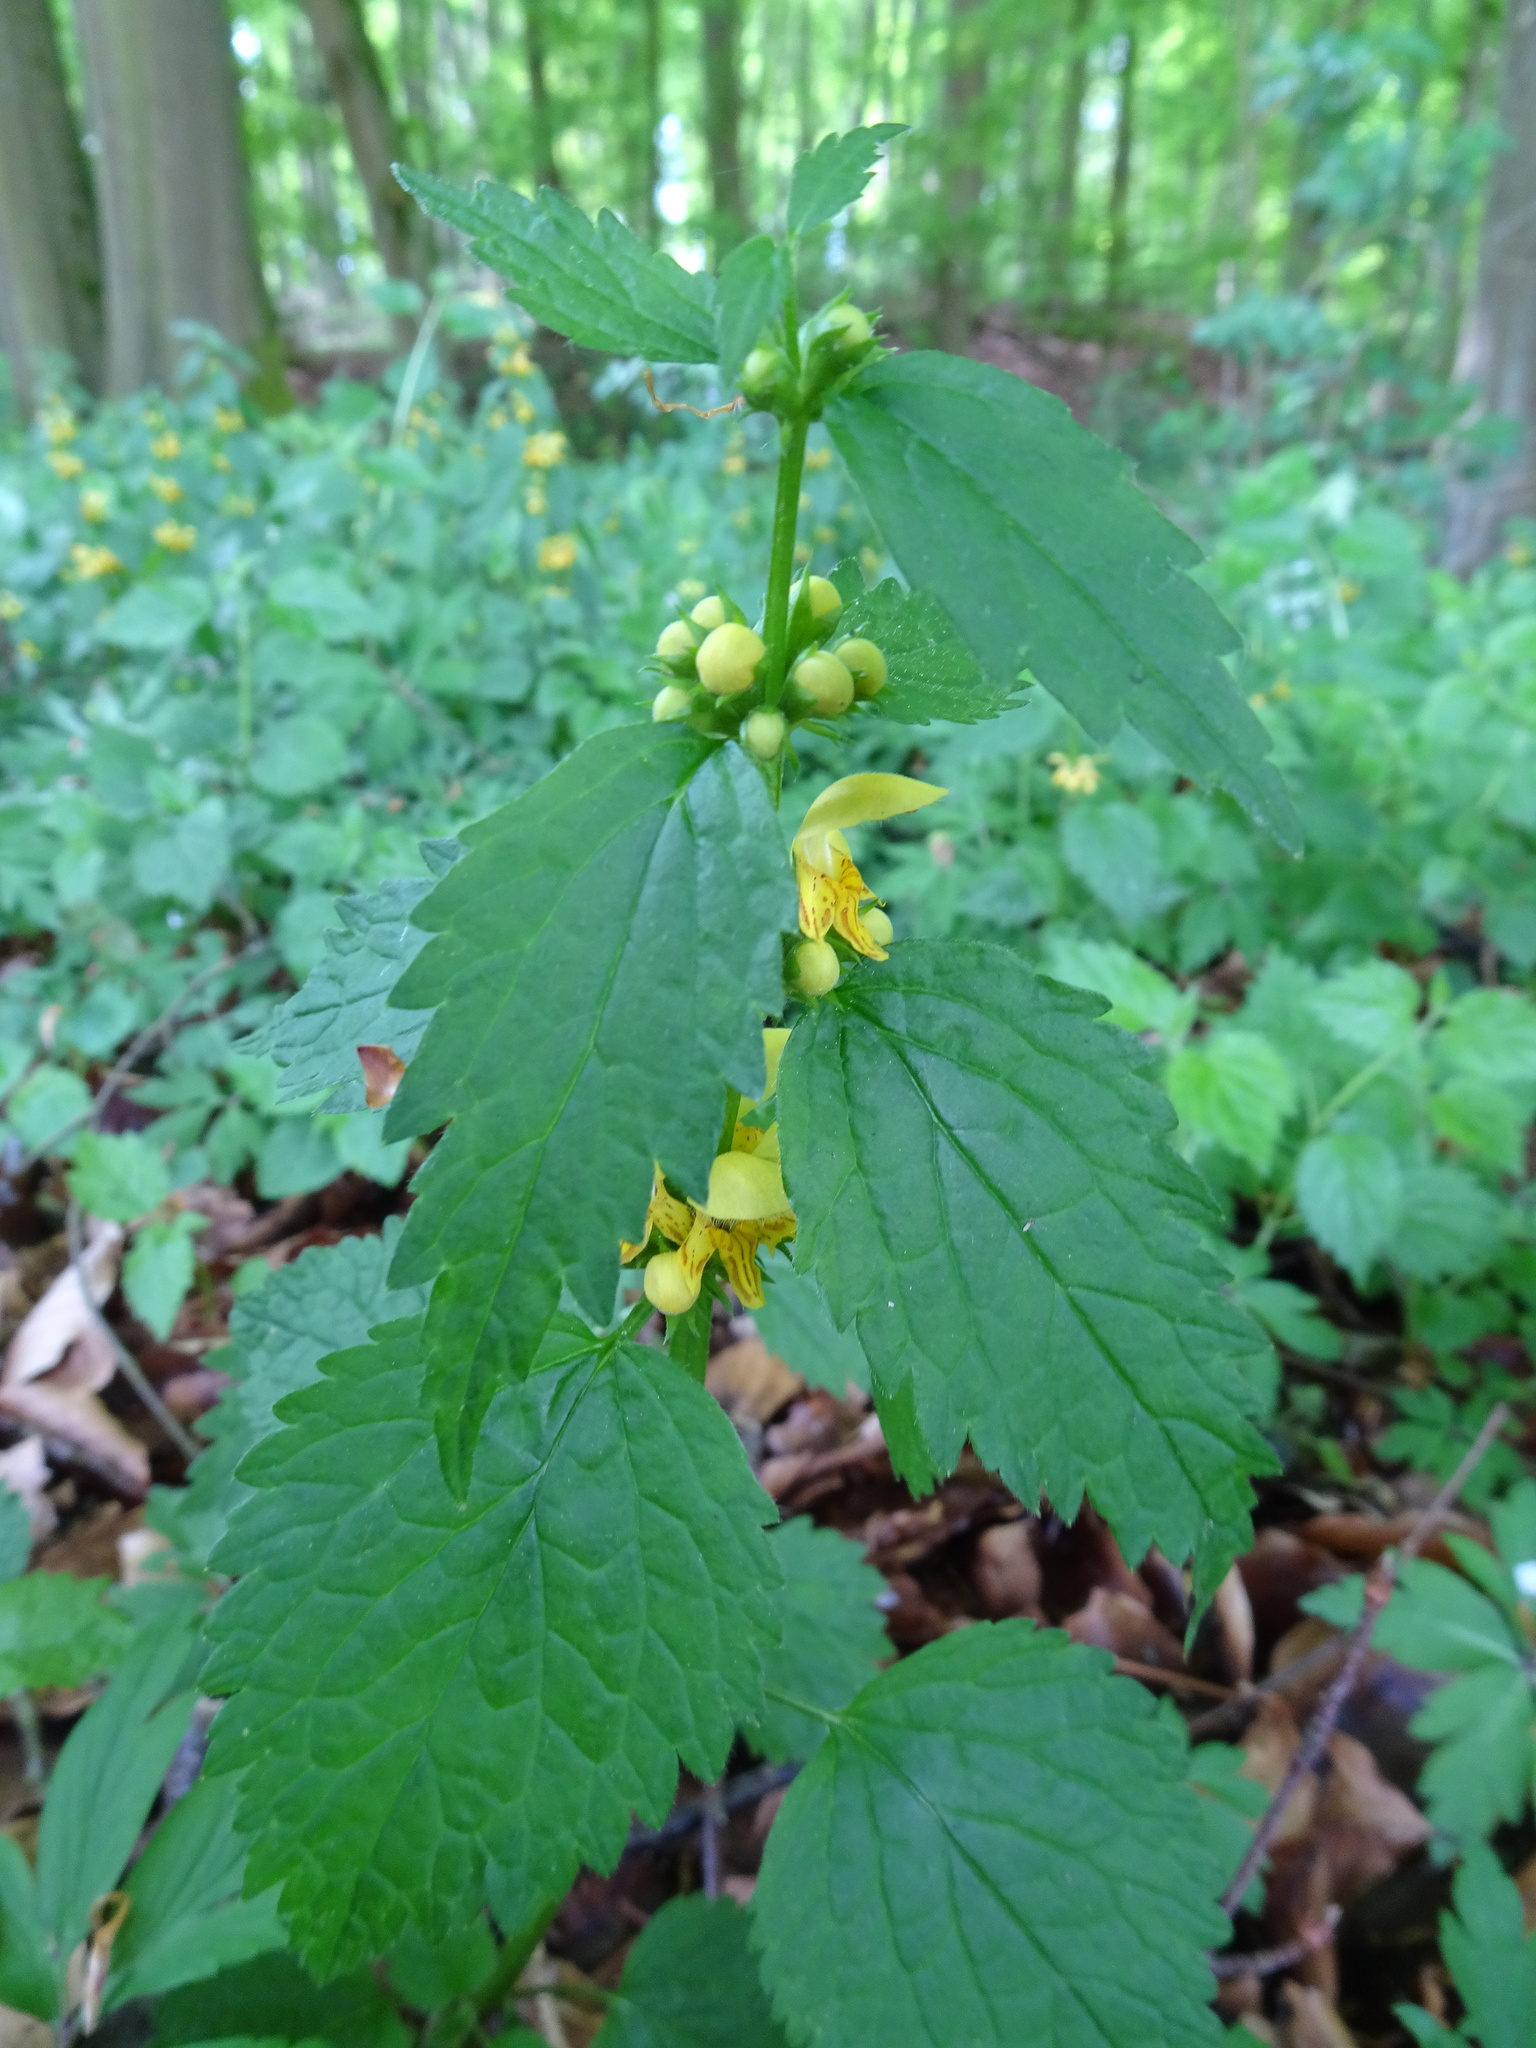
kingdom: Plantae
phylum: Tracheophyta
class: Magnoliopsida
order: Lamiales
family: Lamiaceae
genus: Lamium
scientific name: Lamium galeobdolon
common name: Yellow archangel
